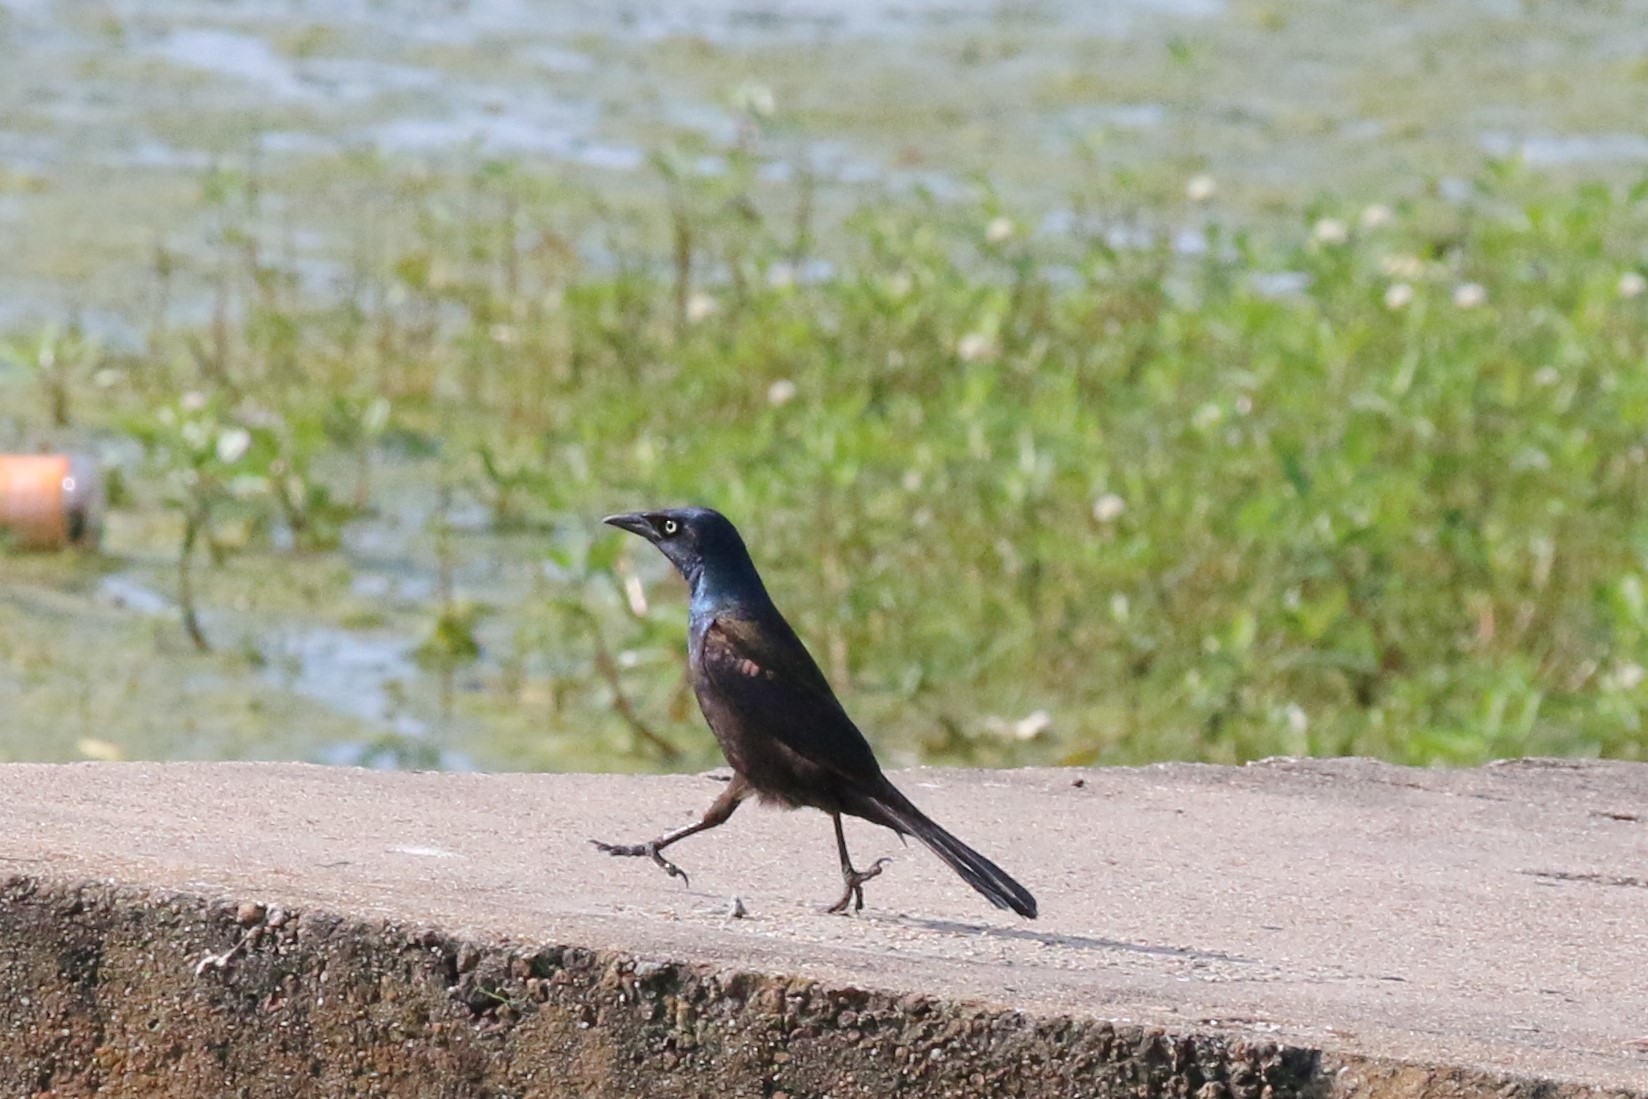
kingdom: Animalia
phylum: Chordata
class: Aves
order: Passeriformes
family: Icteridae
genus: Quiscalus
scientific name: Quiscalus quiscula
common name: Common grackle
